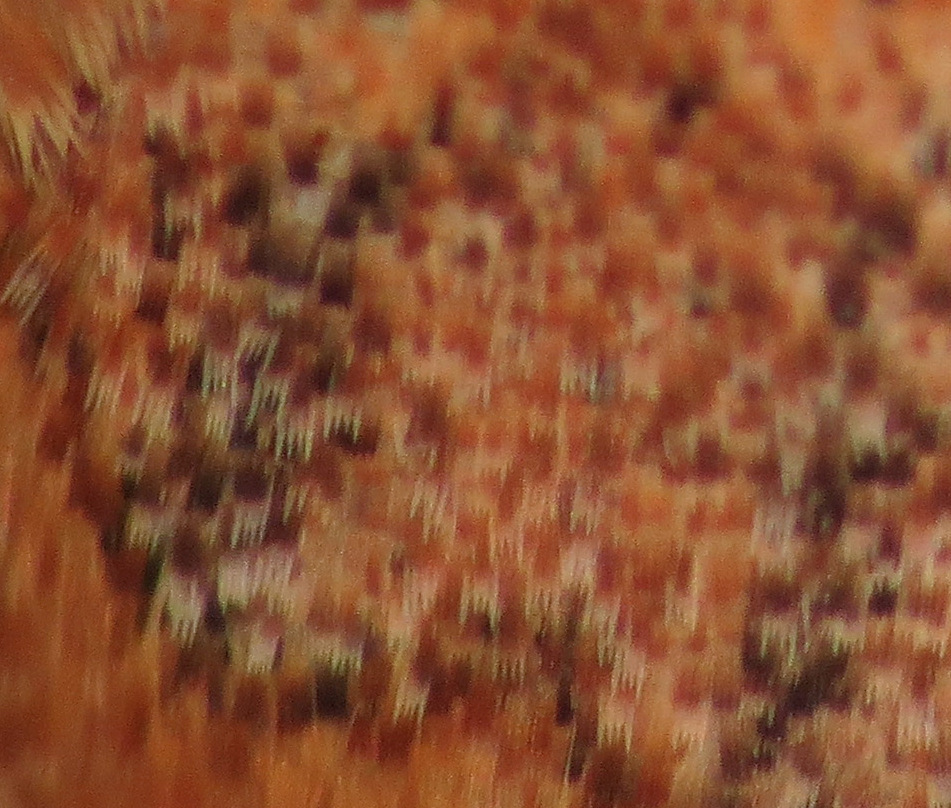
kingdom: Animalia
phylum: Arthropoda
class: Insecta
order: Lepidoptera
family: Noctuidae
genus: Eupsilia
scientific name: Eupsilia vinulenta
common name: Straight-toothed sallow
